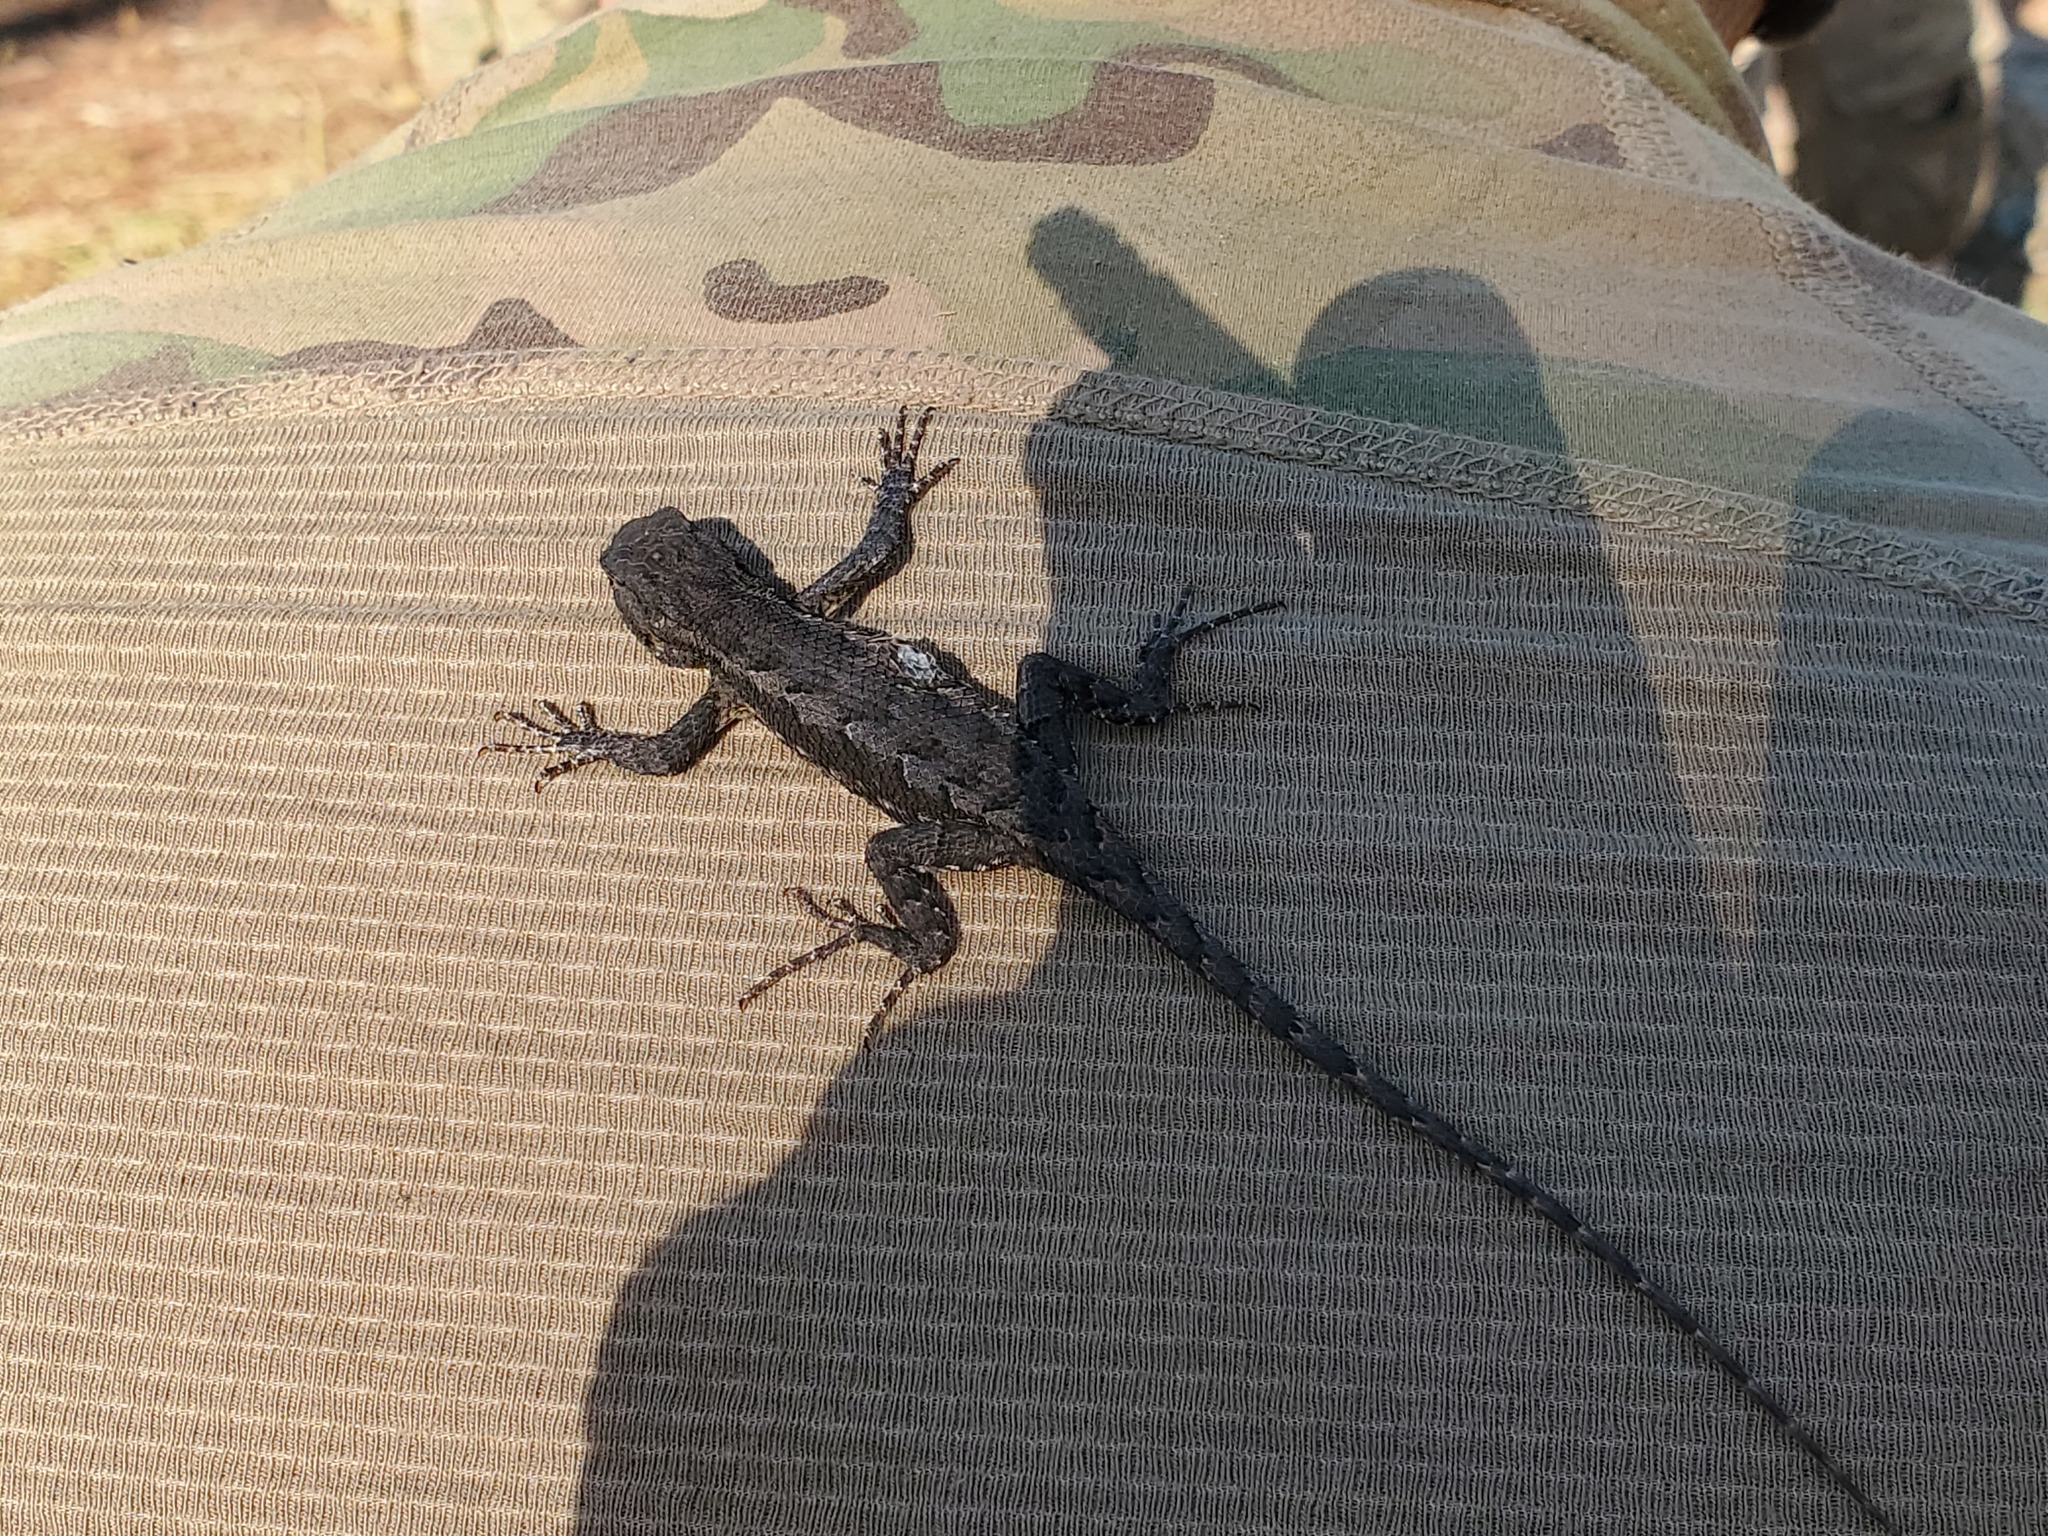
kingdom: Animalia
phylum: Chordata
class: Squamata
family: Phrynosomatidae
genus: Sceloporus
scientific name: Sceloporus consobrinus
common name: Southern prairie lizard
